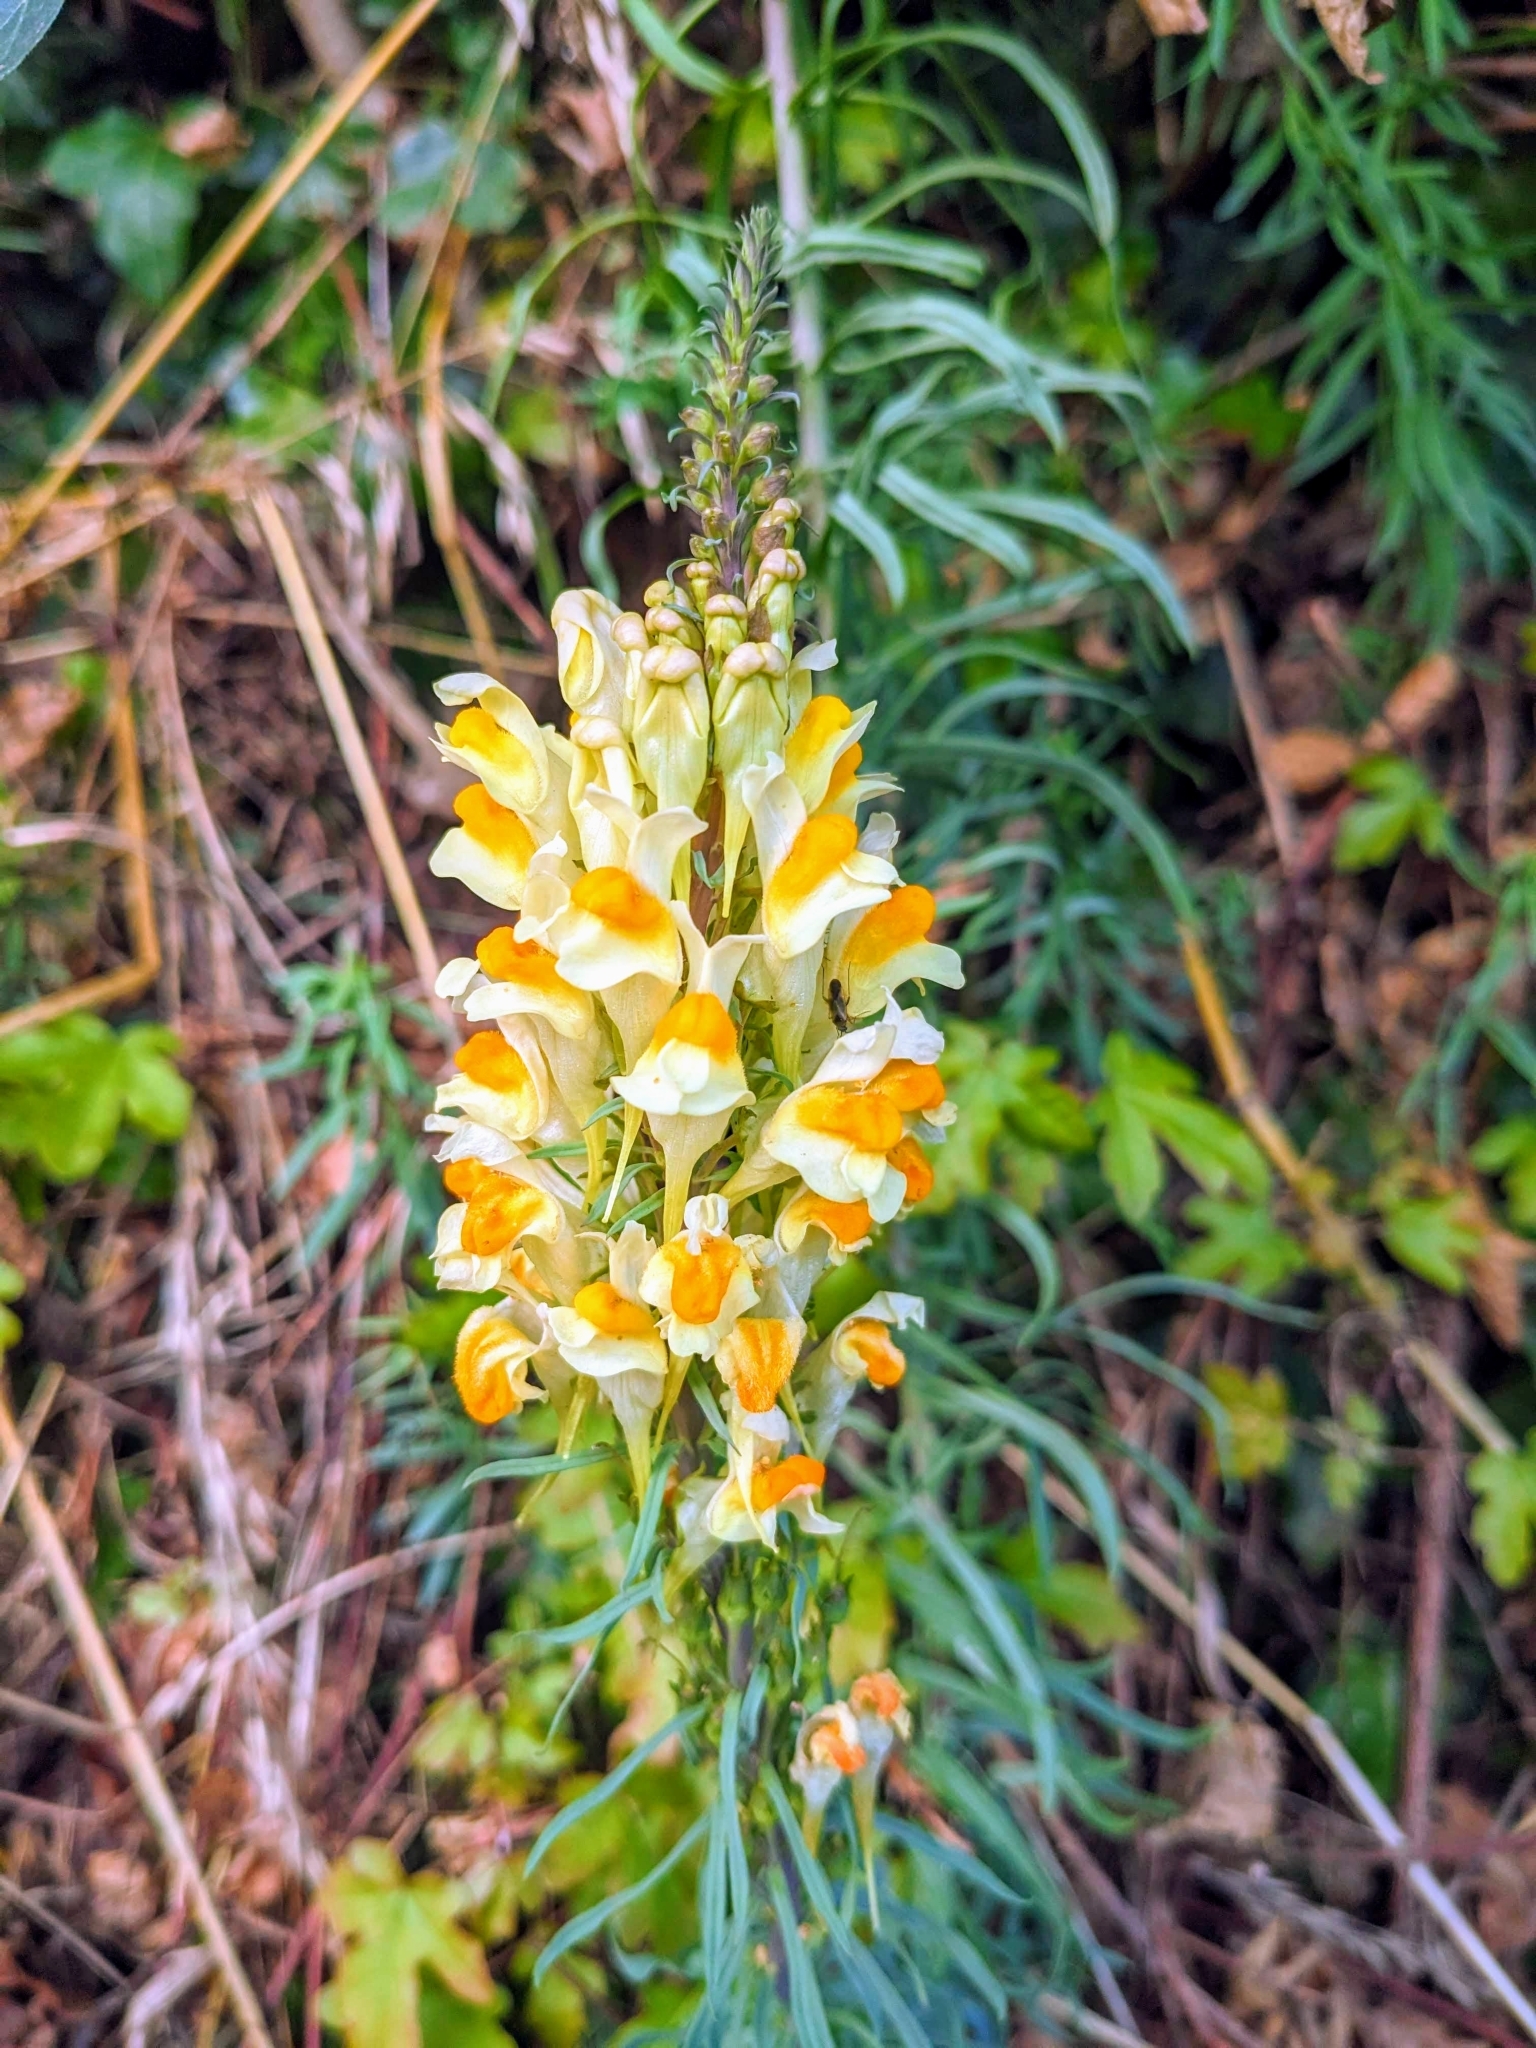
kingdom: Plantae
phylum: Tracheophyta
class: Magnoliopsida
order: Lamiales
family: Plantaginaceae
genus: Linaria
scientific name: Linaria vulgaris
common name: Butter and eggs
